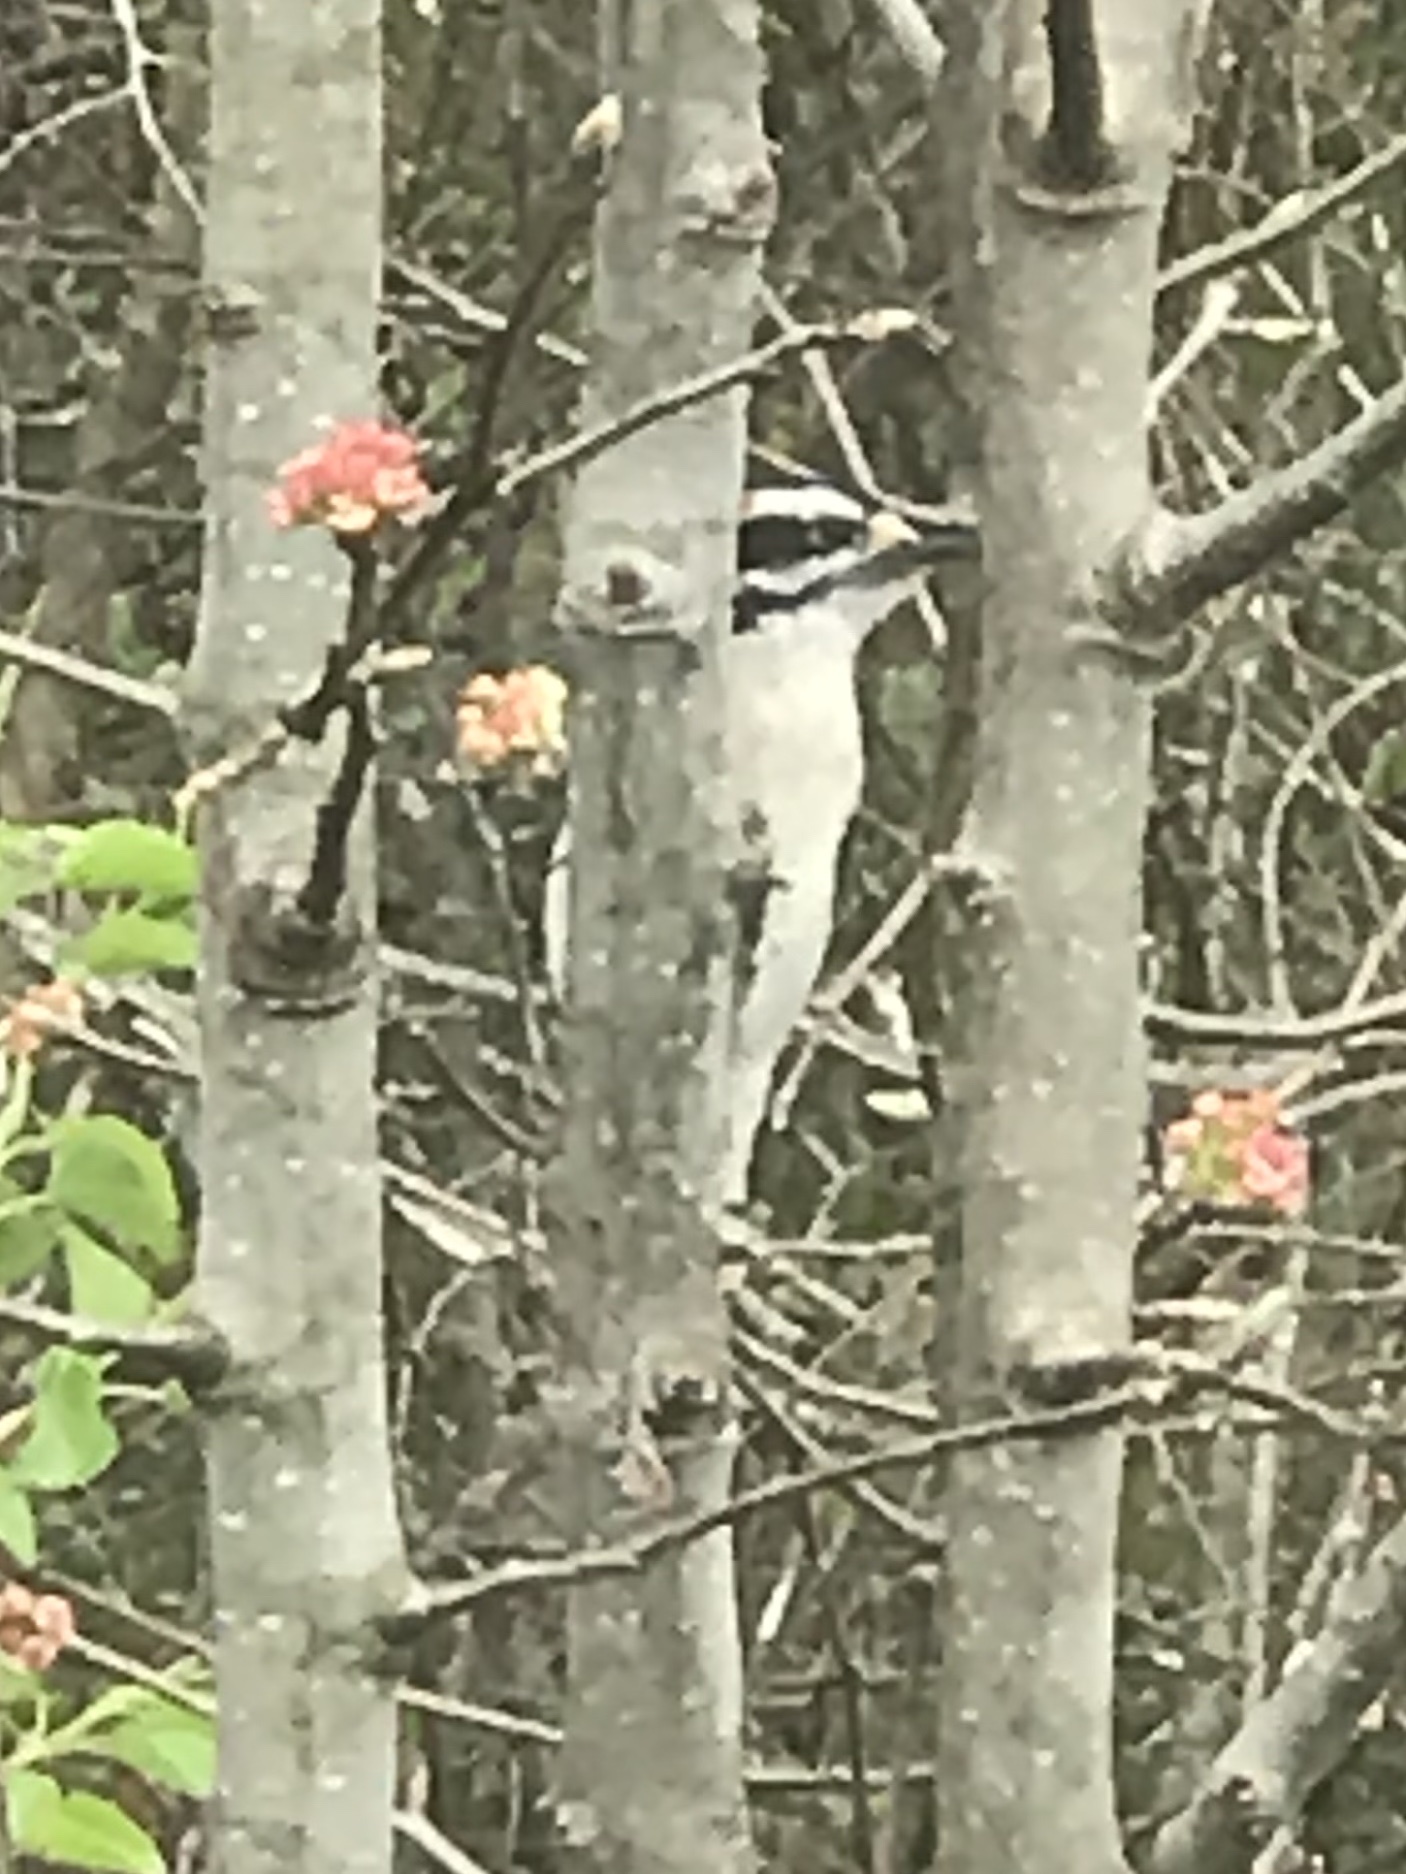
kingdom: Animalia
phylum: Chordata
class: Aves
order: Piciformes
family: Picidae
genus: Dryobates
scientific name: Dryobates pubescens
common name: Downy woodpecker
